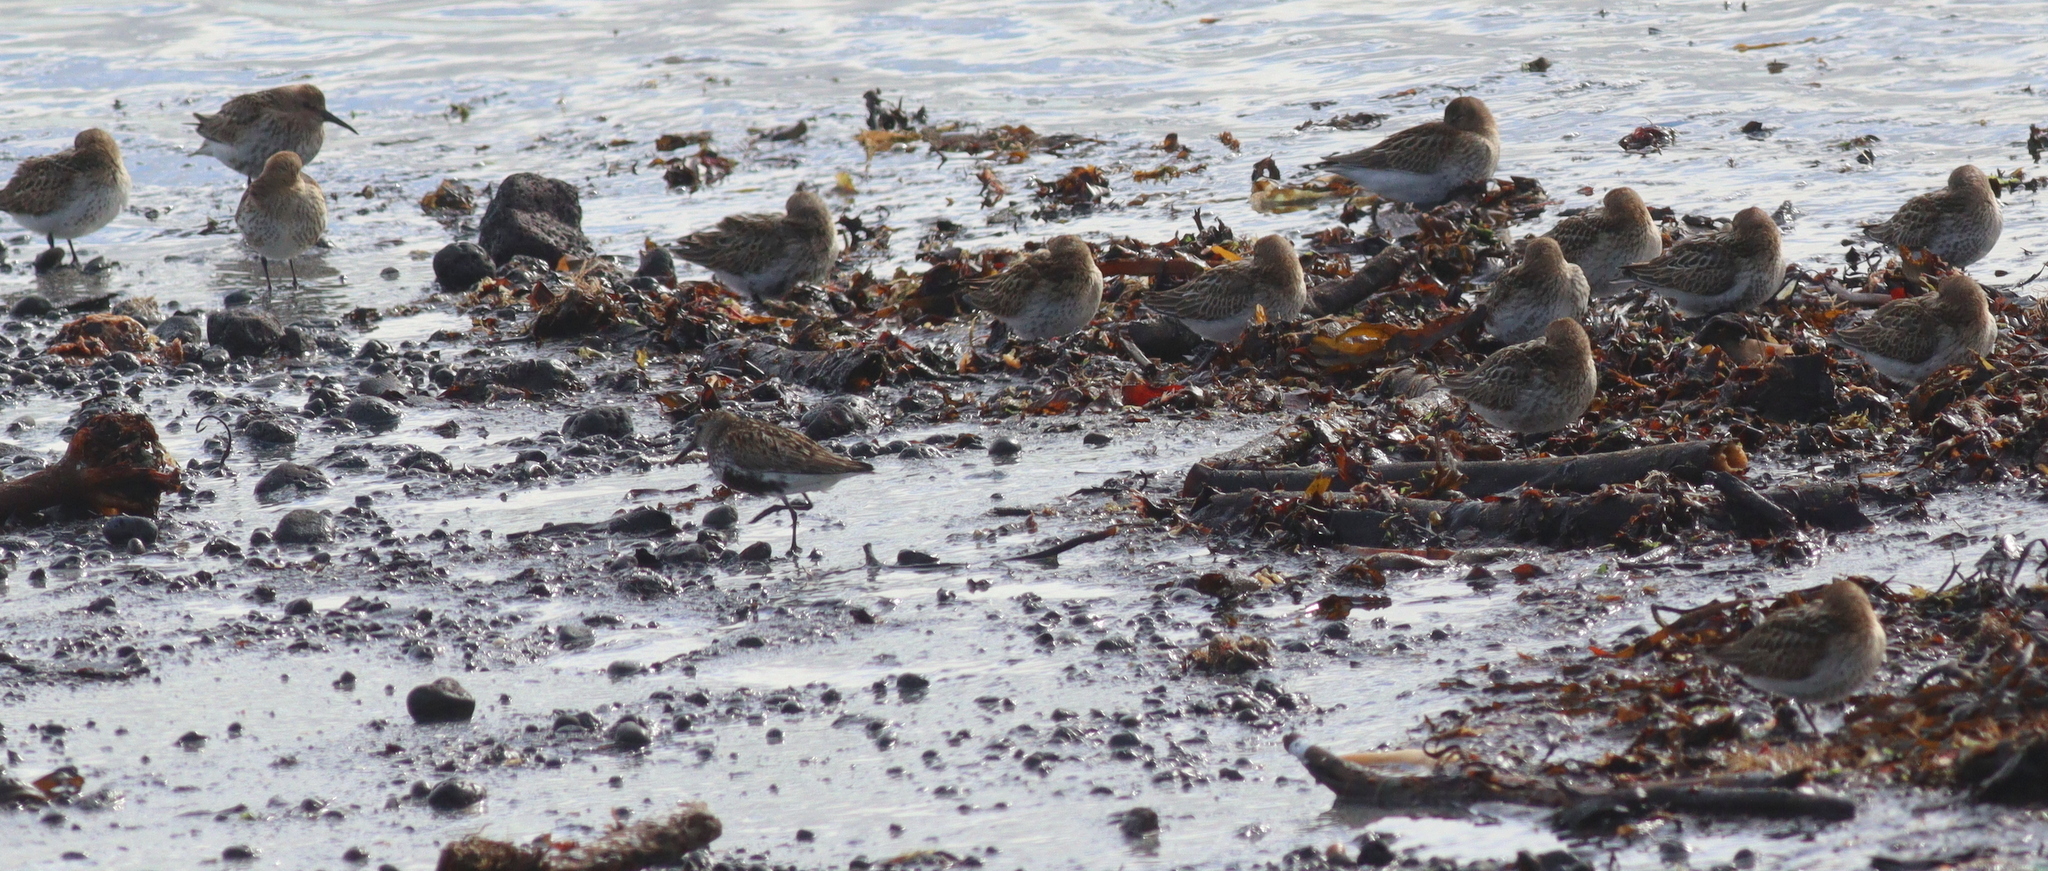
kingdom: Animalia
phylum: Chordata
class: Aves
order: Charadriiformes
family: Scolopacidae
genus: Calidris
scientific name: Calidris alpina
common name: Dunlin
